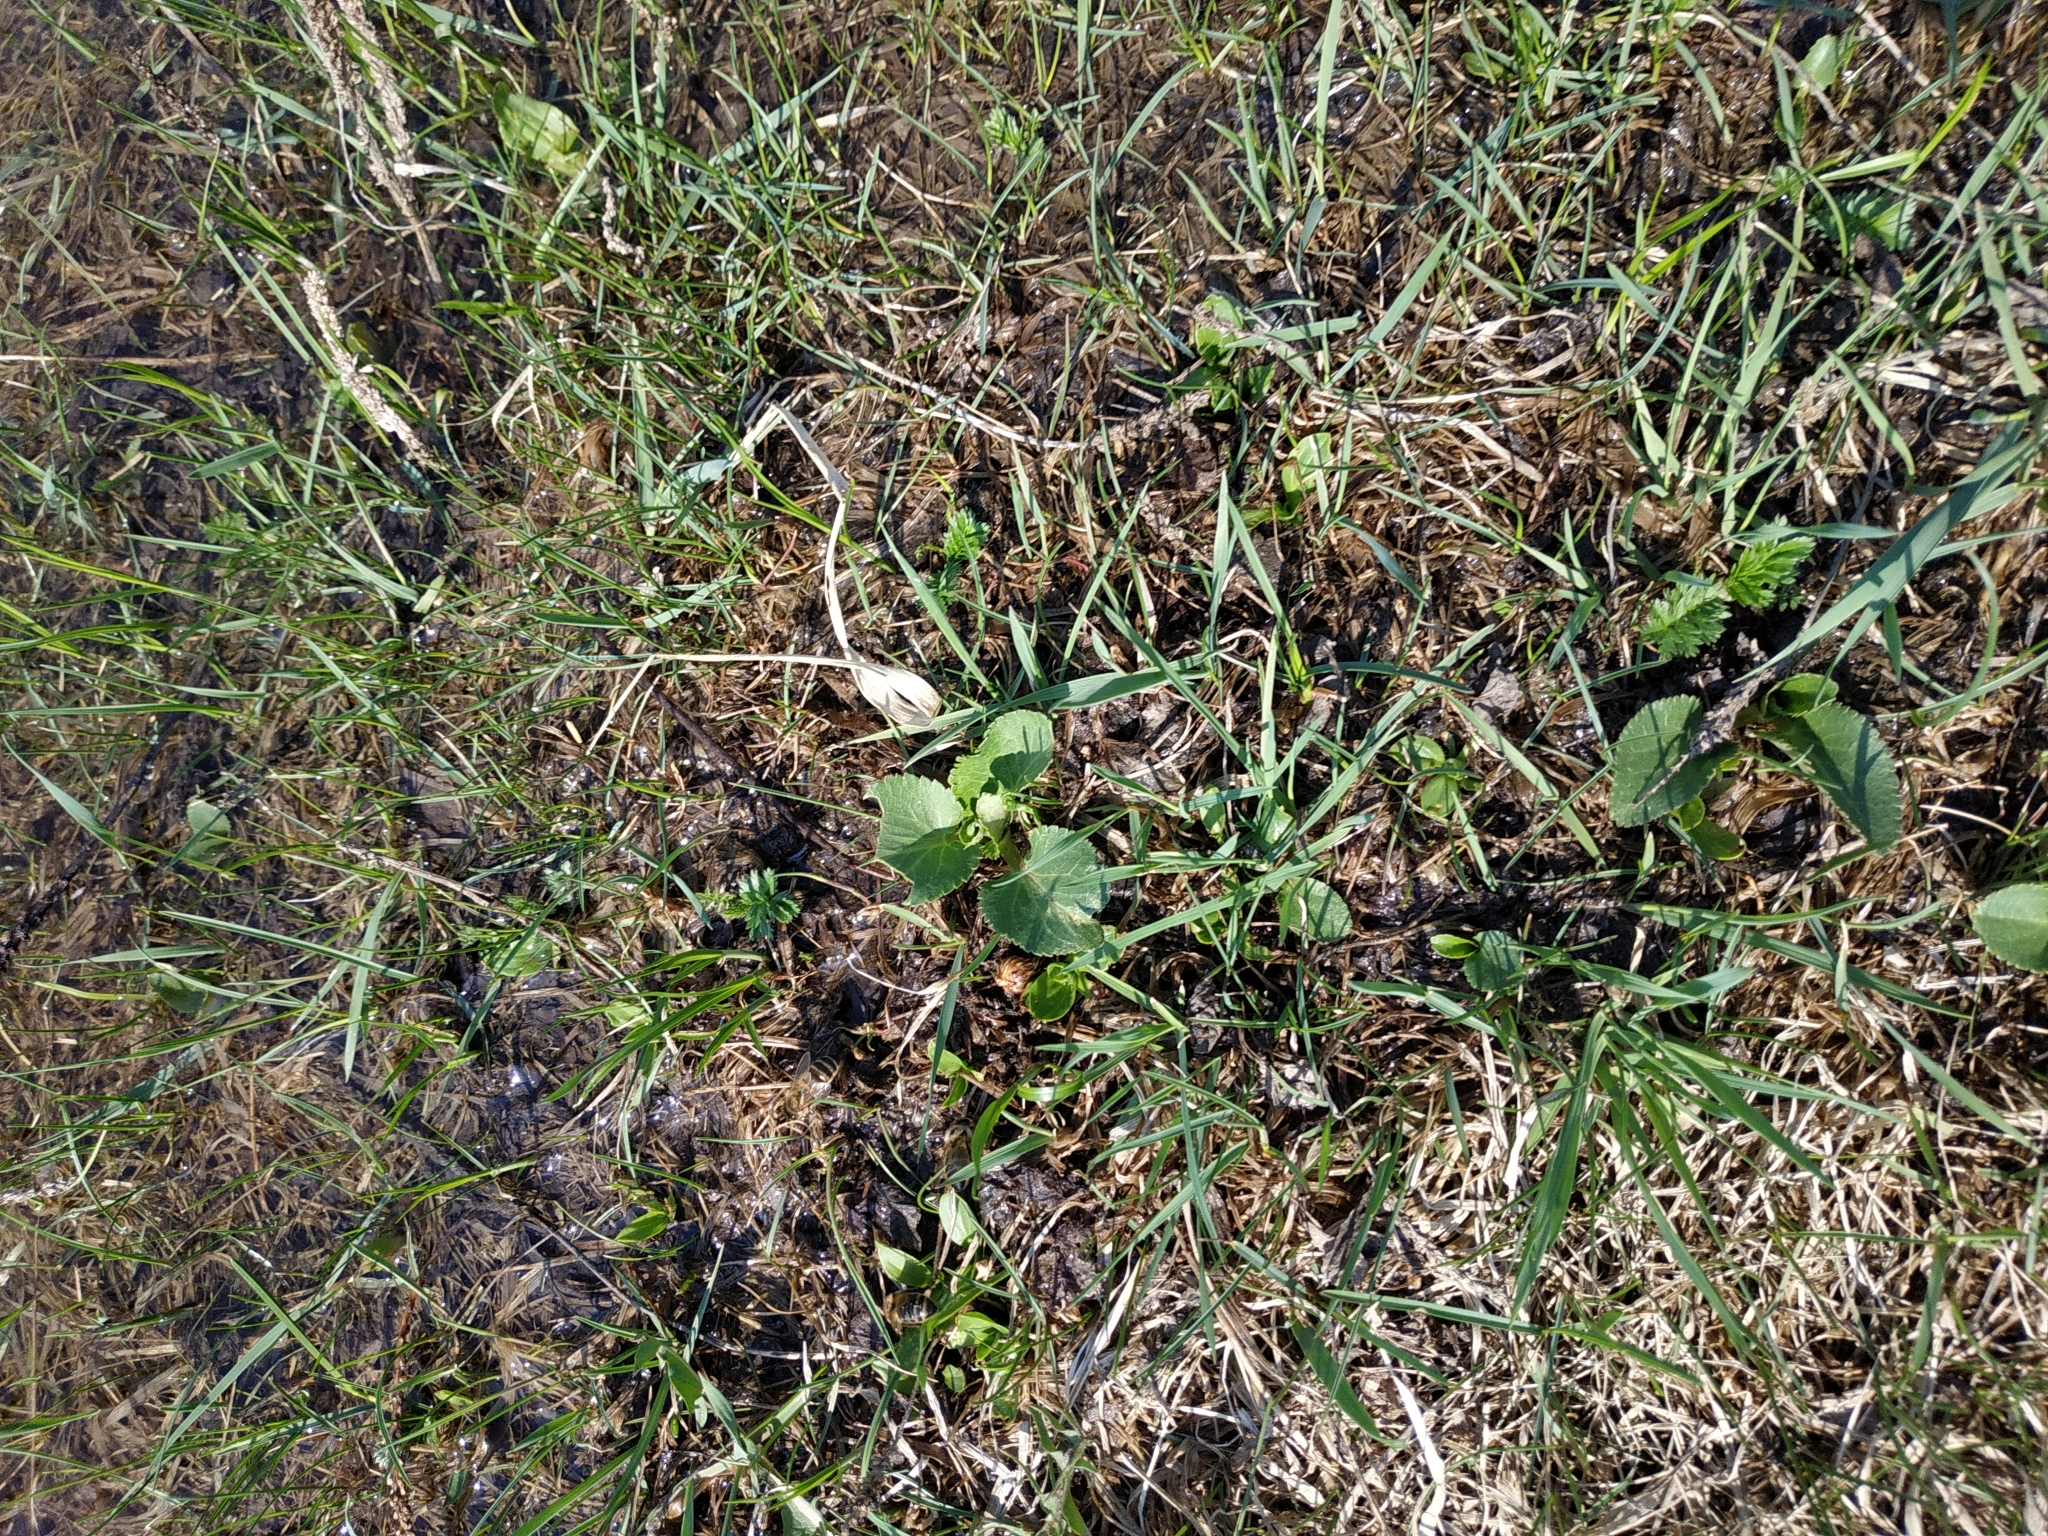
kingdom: Plantae
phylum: Tracheophyta
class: Magnoliopsida
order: Apiales
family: Apiaceae
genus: Eryngium
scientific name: Eryngium planum
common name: Blue eryngo
